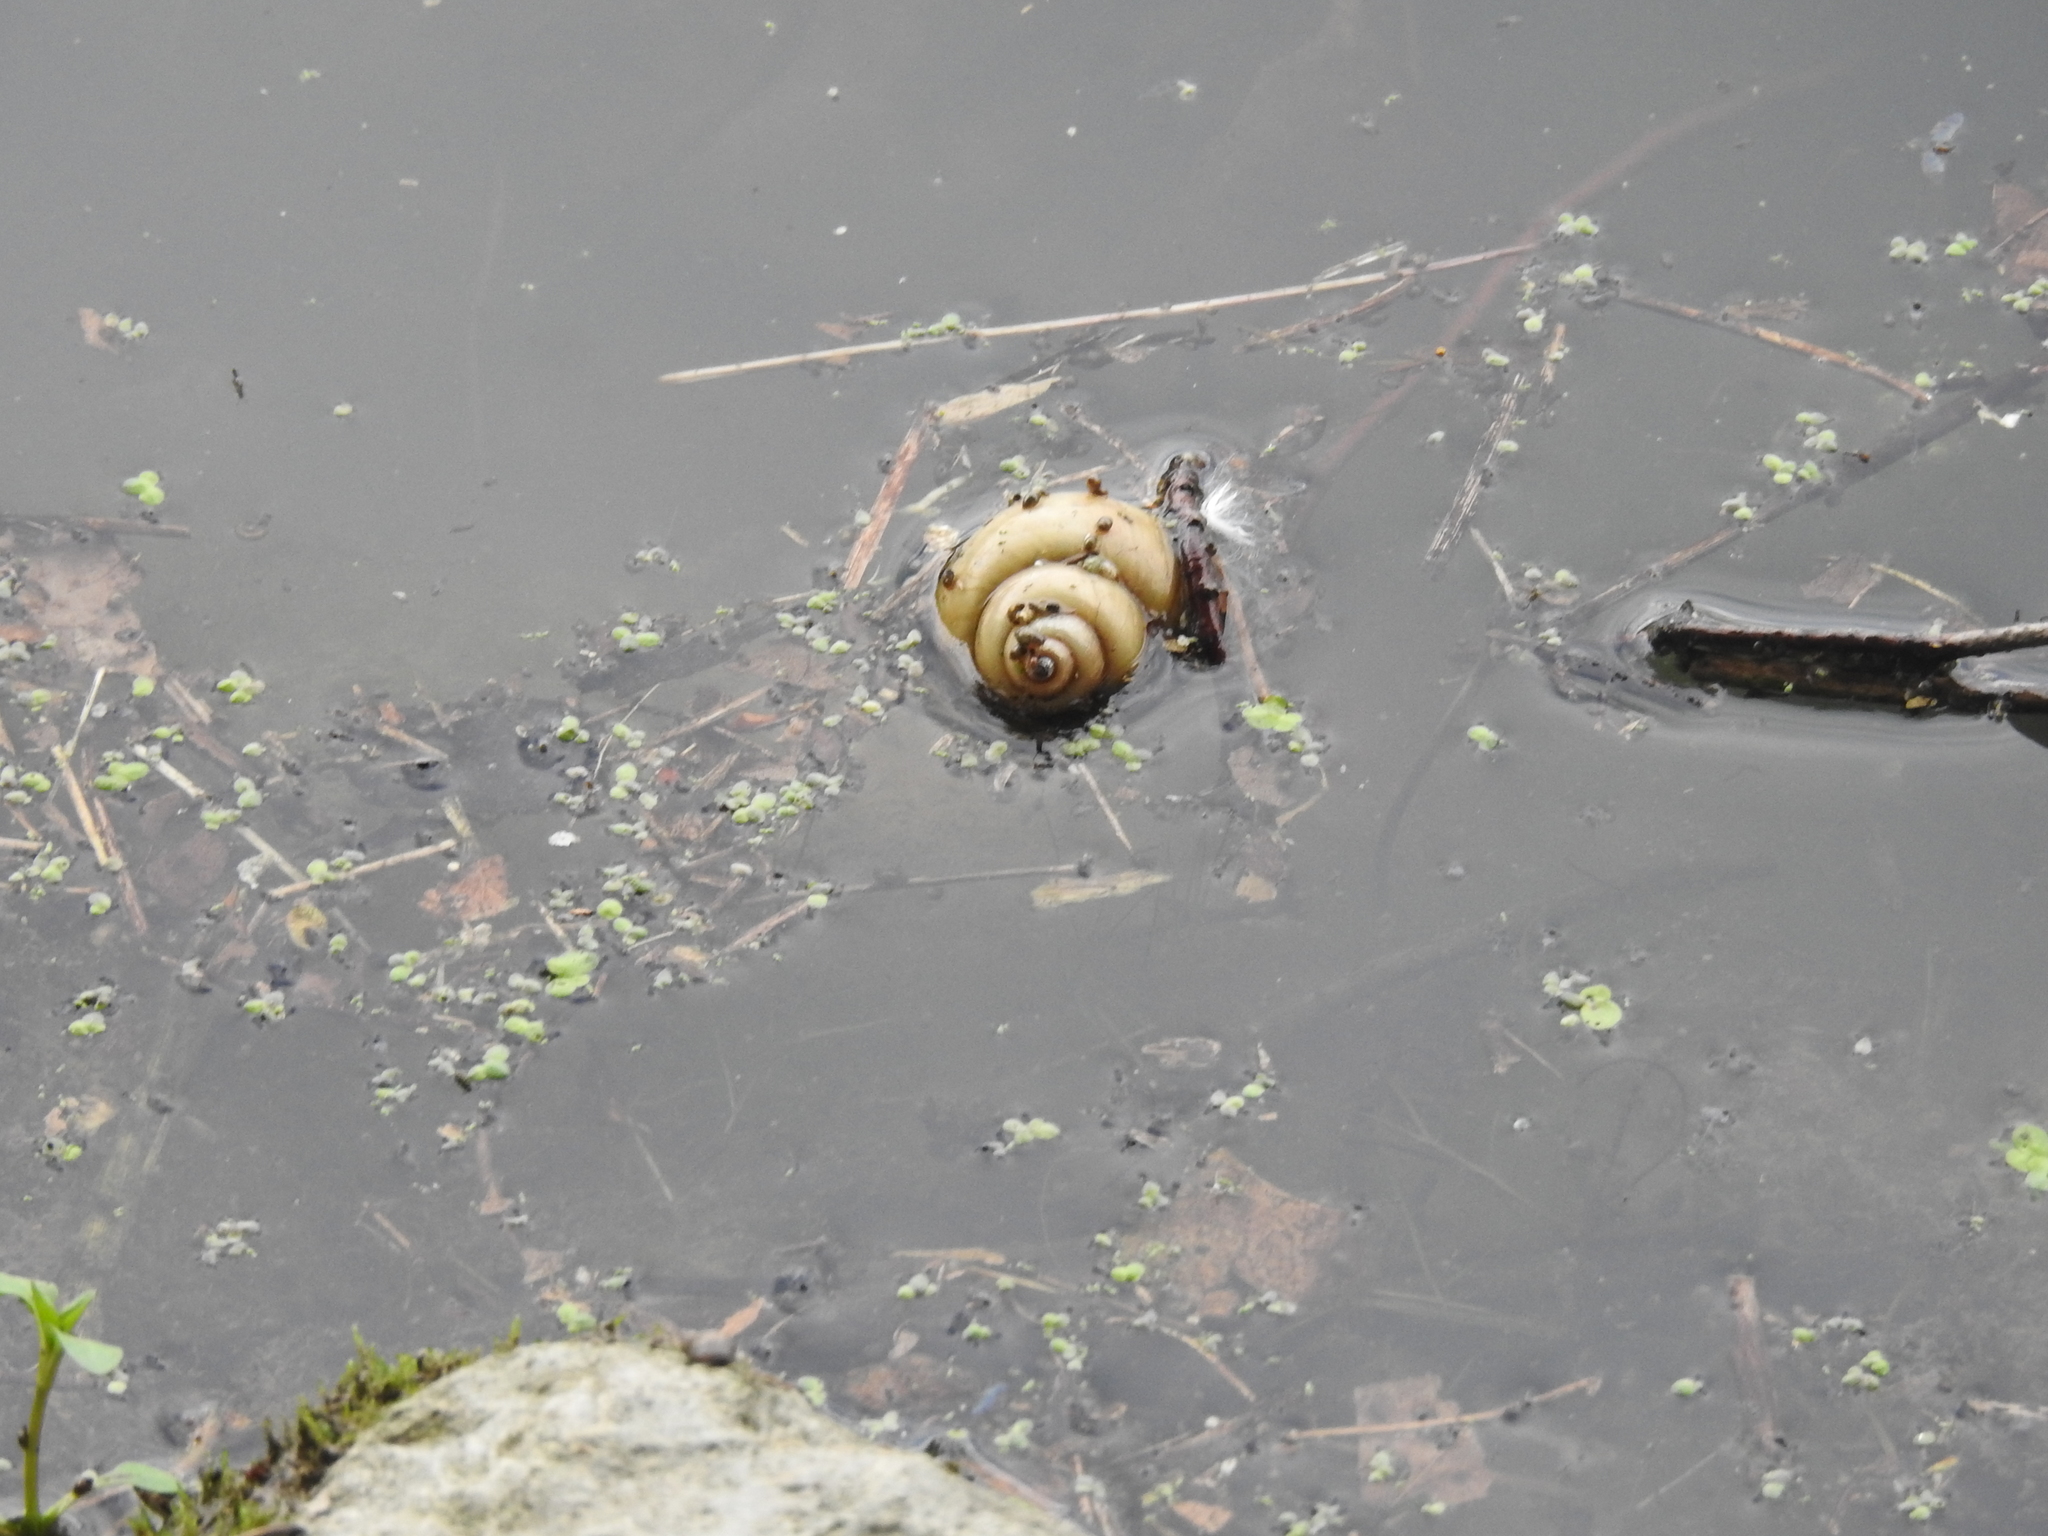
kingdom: Animalia
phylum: Mollusca
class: Gastropoda
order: Architaenioglossa
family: Viviparidae
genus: Cipangopaludina
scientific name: Cipangopaludina chinensis
